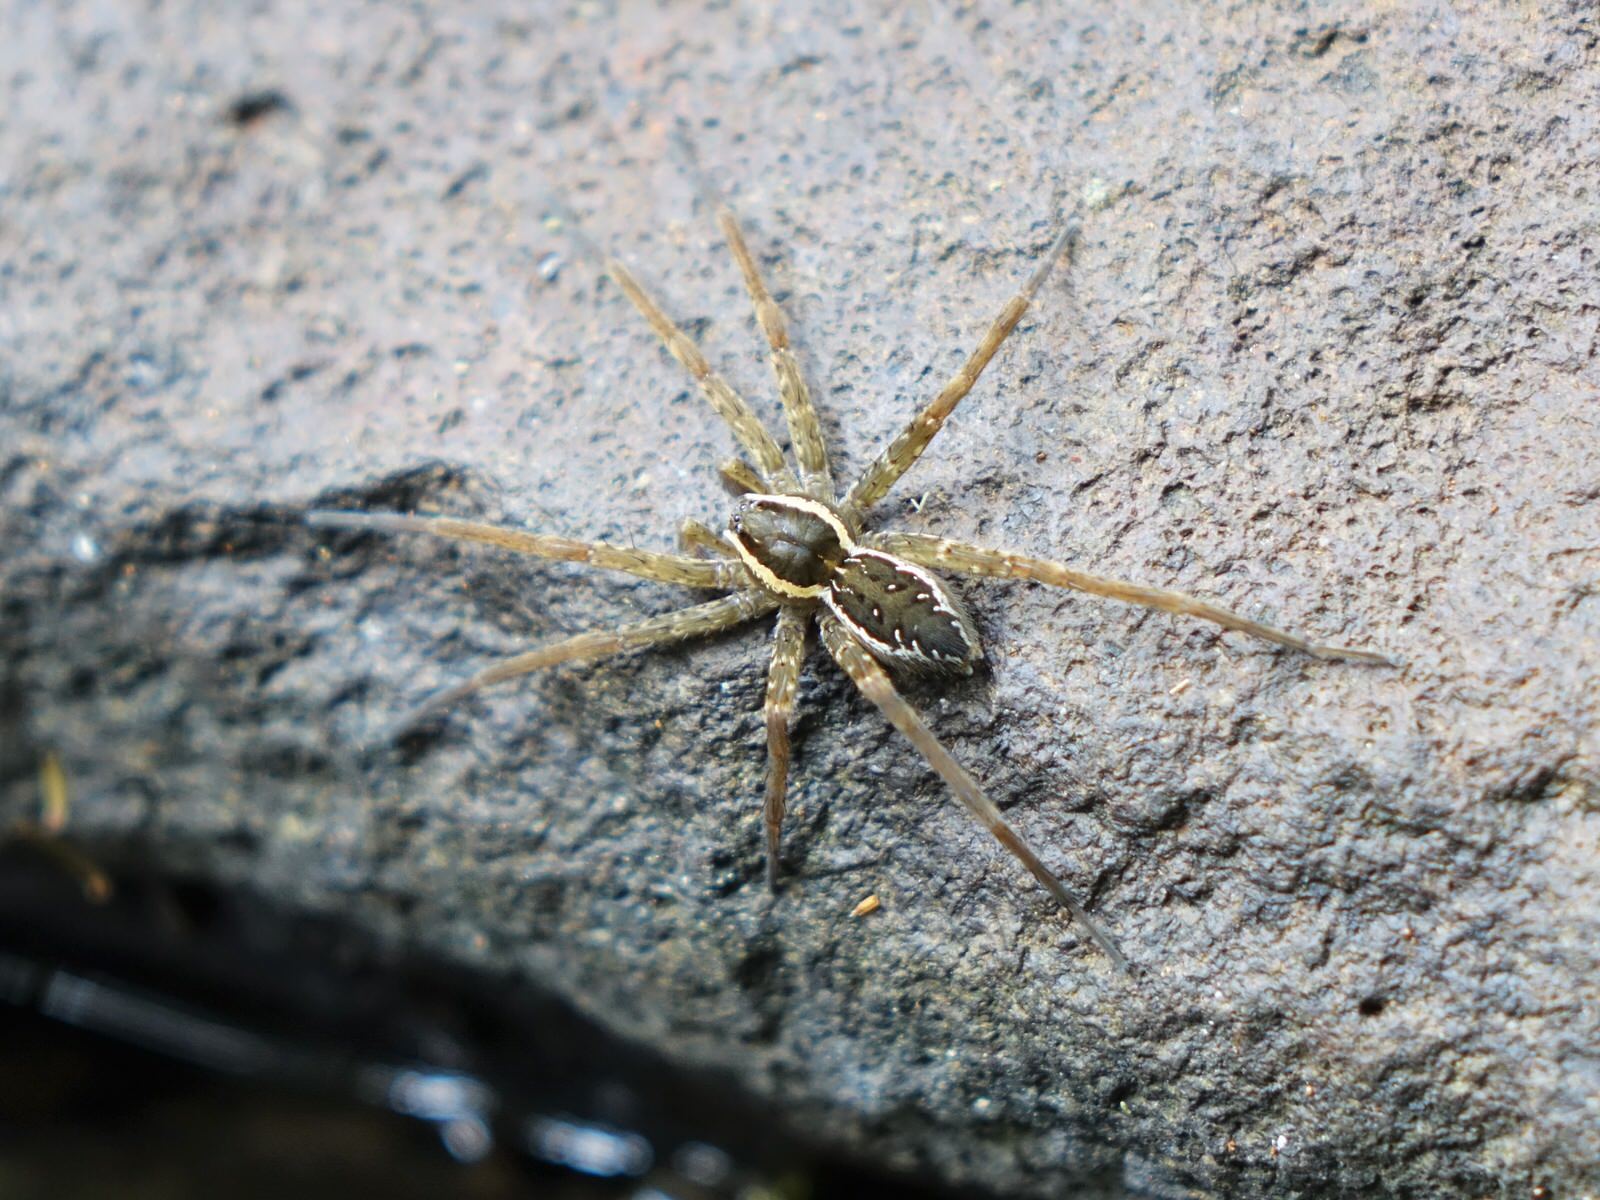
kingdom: Animalia
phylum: Arthropoda
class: Arachnida
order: Araneae
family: Pisauridae
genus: Dolomedes
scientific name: Dolomedes dondalei
